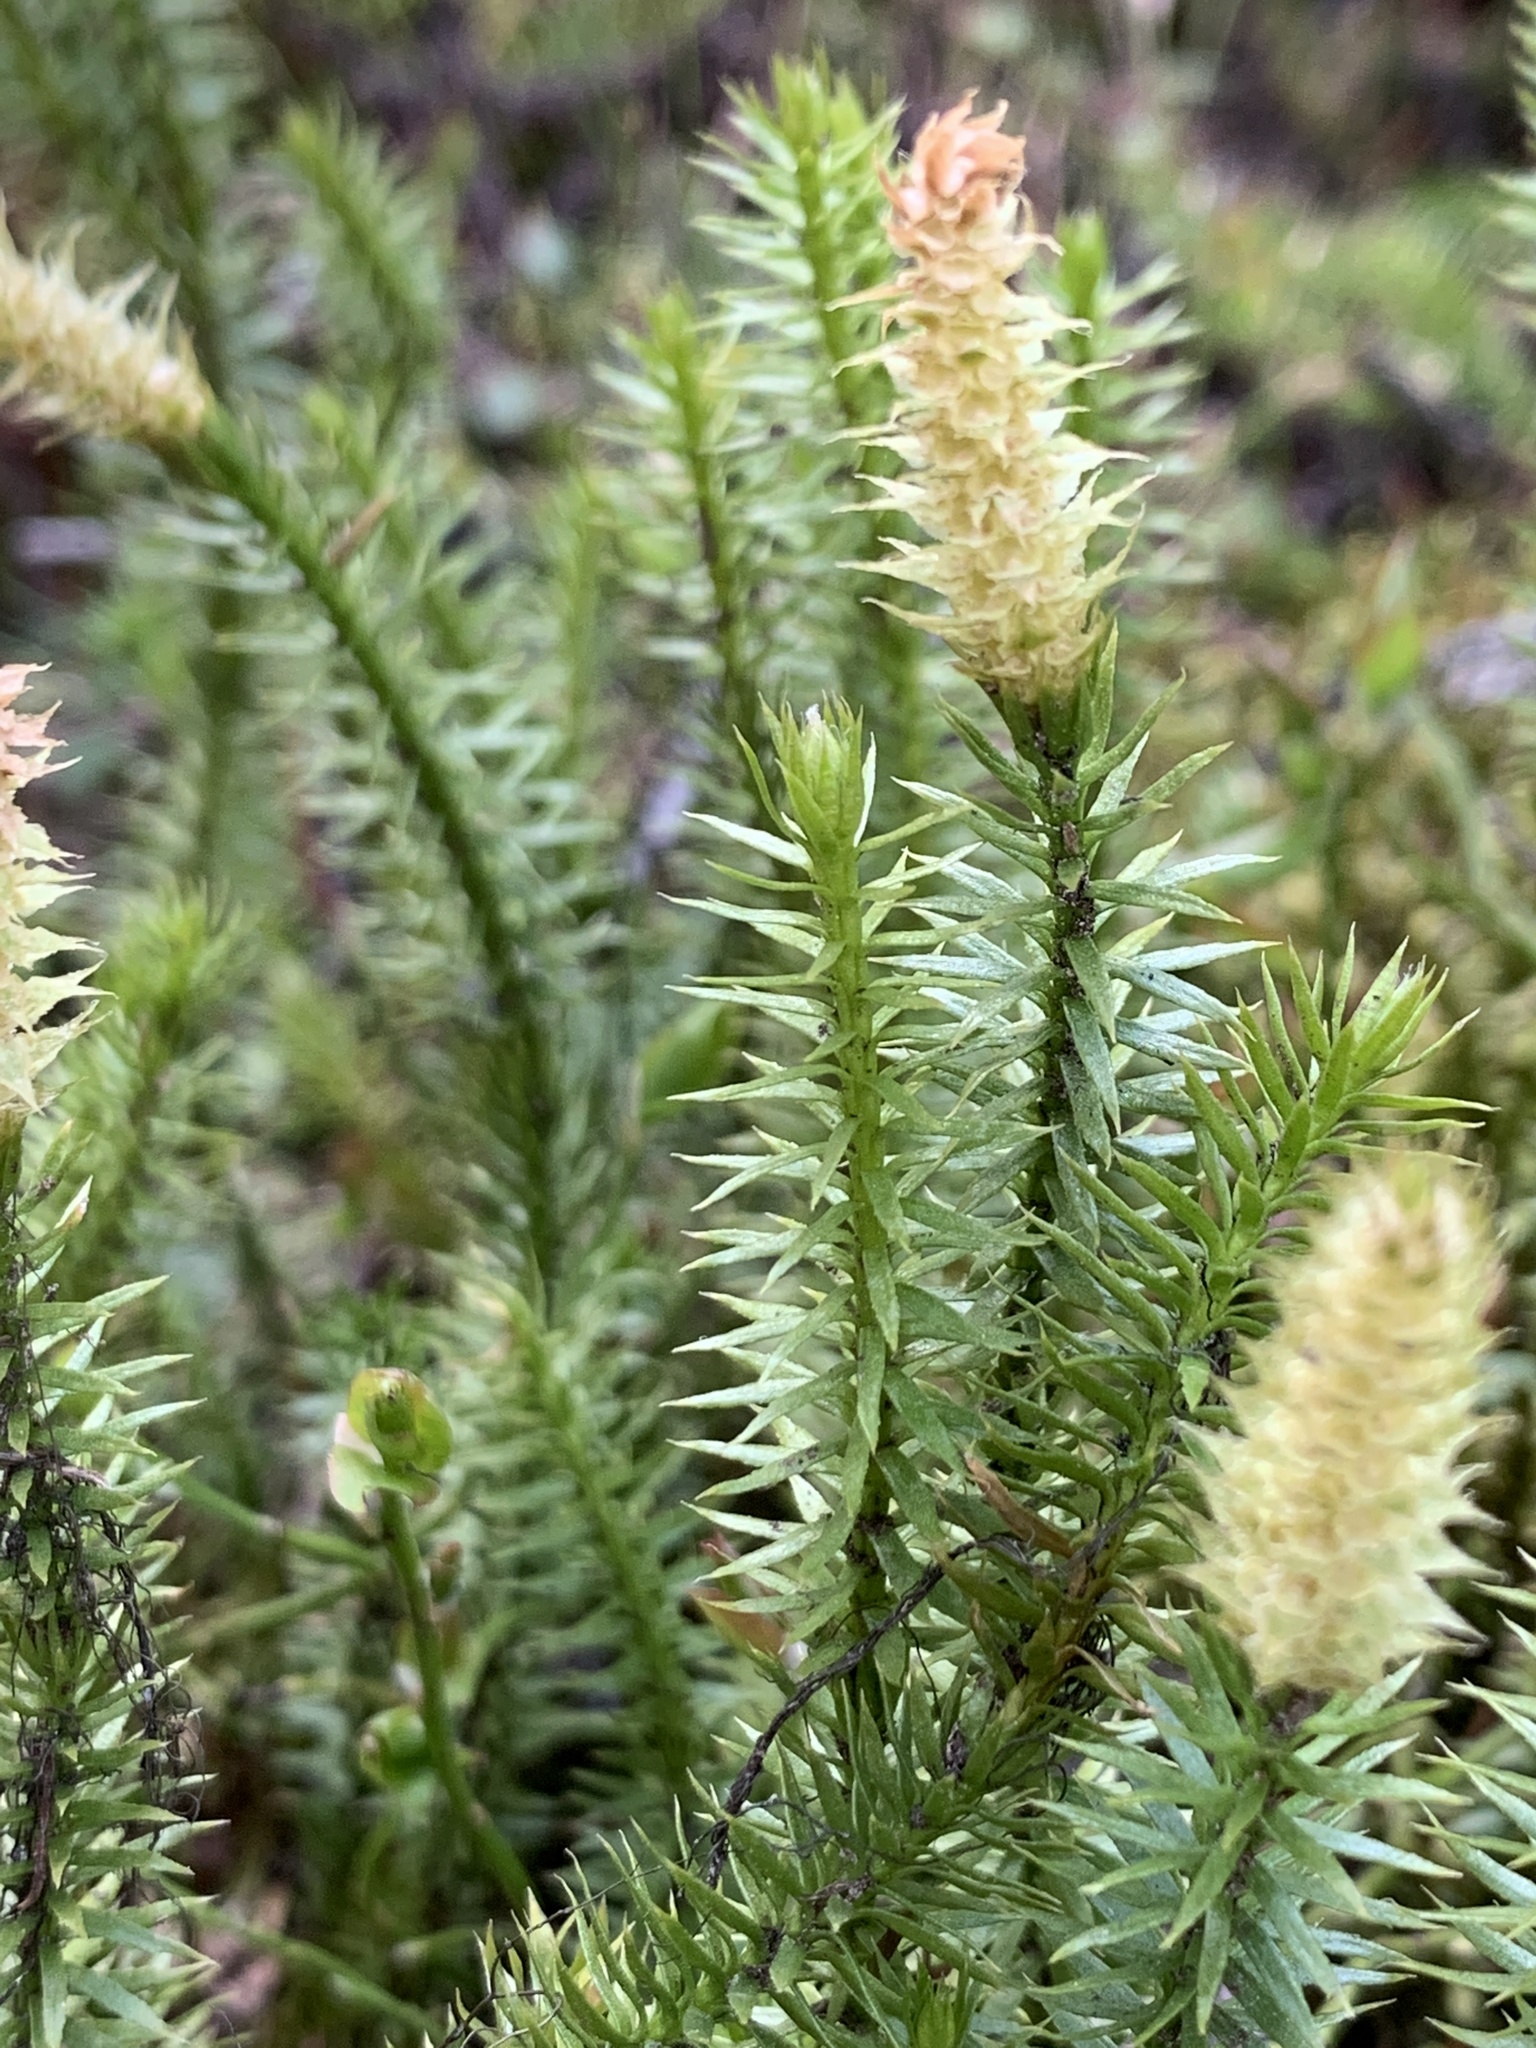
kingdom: Plantae
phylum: Tracheophyta
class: Lycopodiopsida
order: Lycopodiales
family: Lycopodiaceae
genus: Spinulum
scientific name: Spinulum annotinum
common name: Interrupted club-moss
